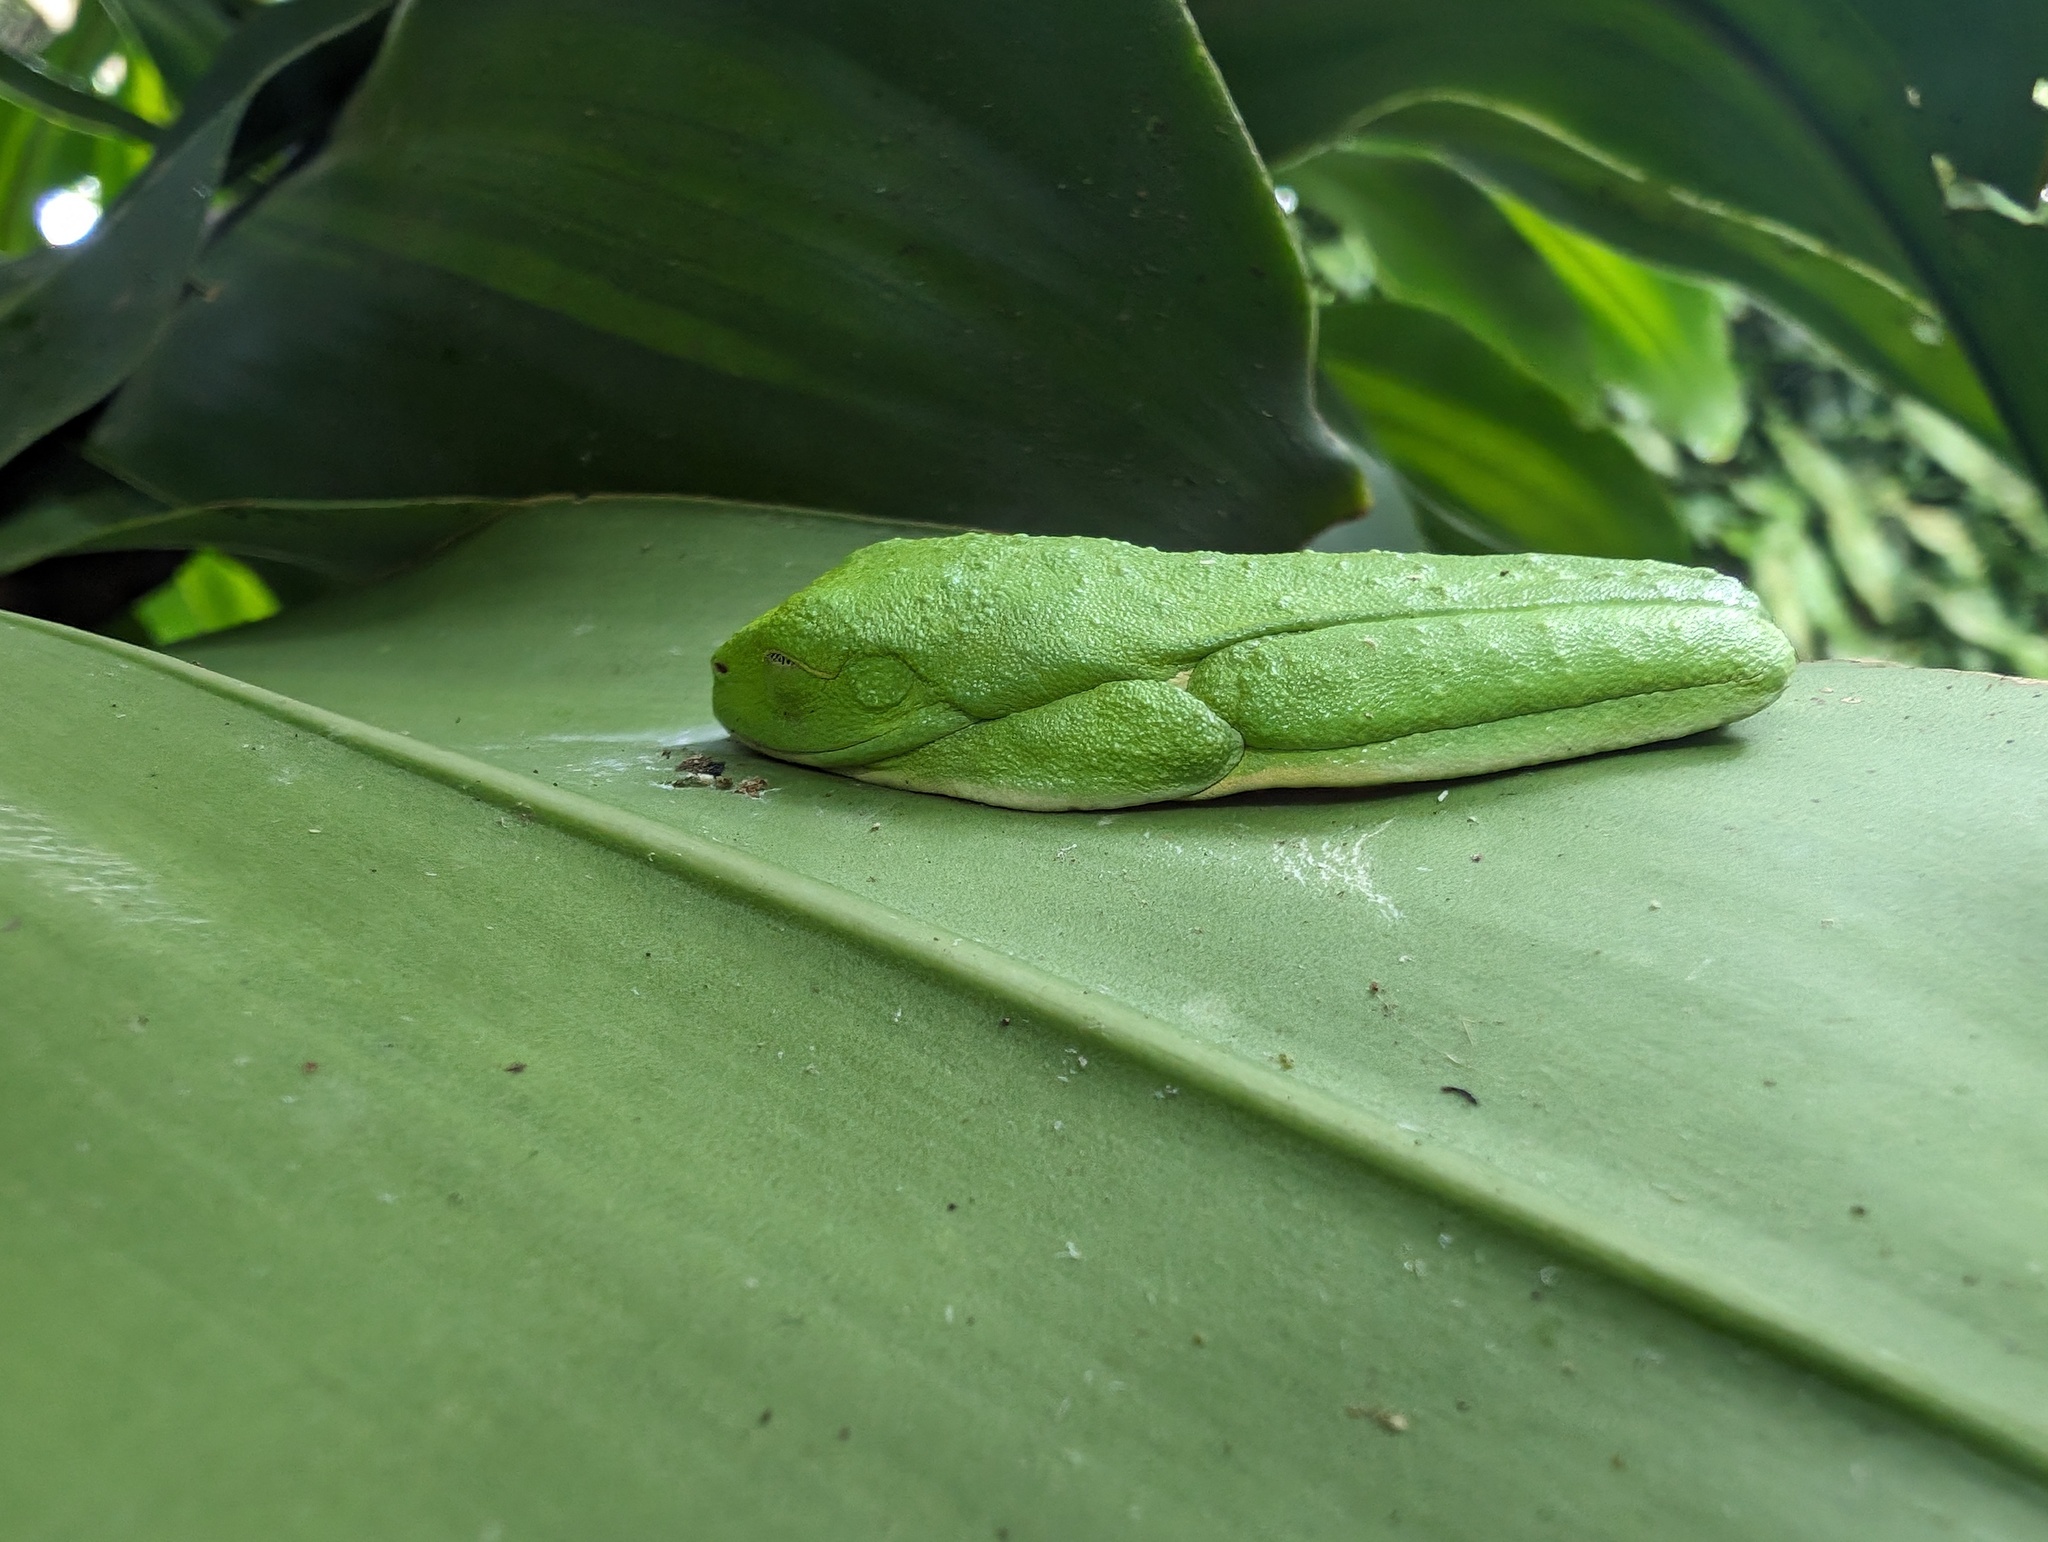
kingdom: Animalia
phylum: Chordata
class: Amphibia
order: Anura
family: Phyllomedusidae
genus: Agalychnis
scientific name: Agalychnis callidryas
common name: Red-eyed treefrog
